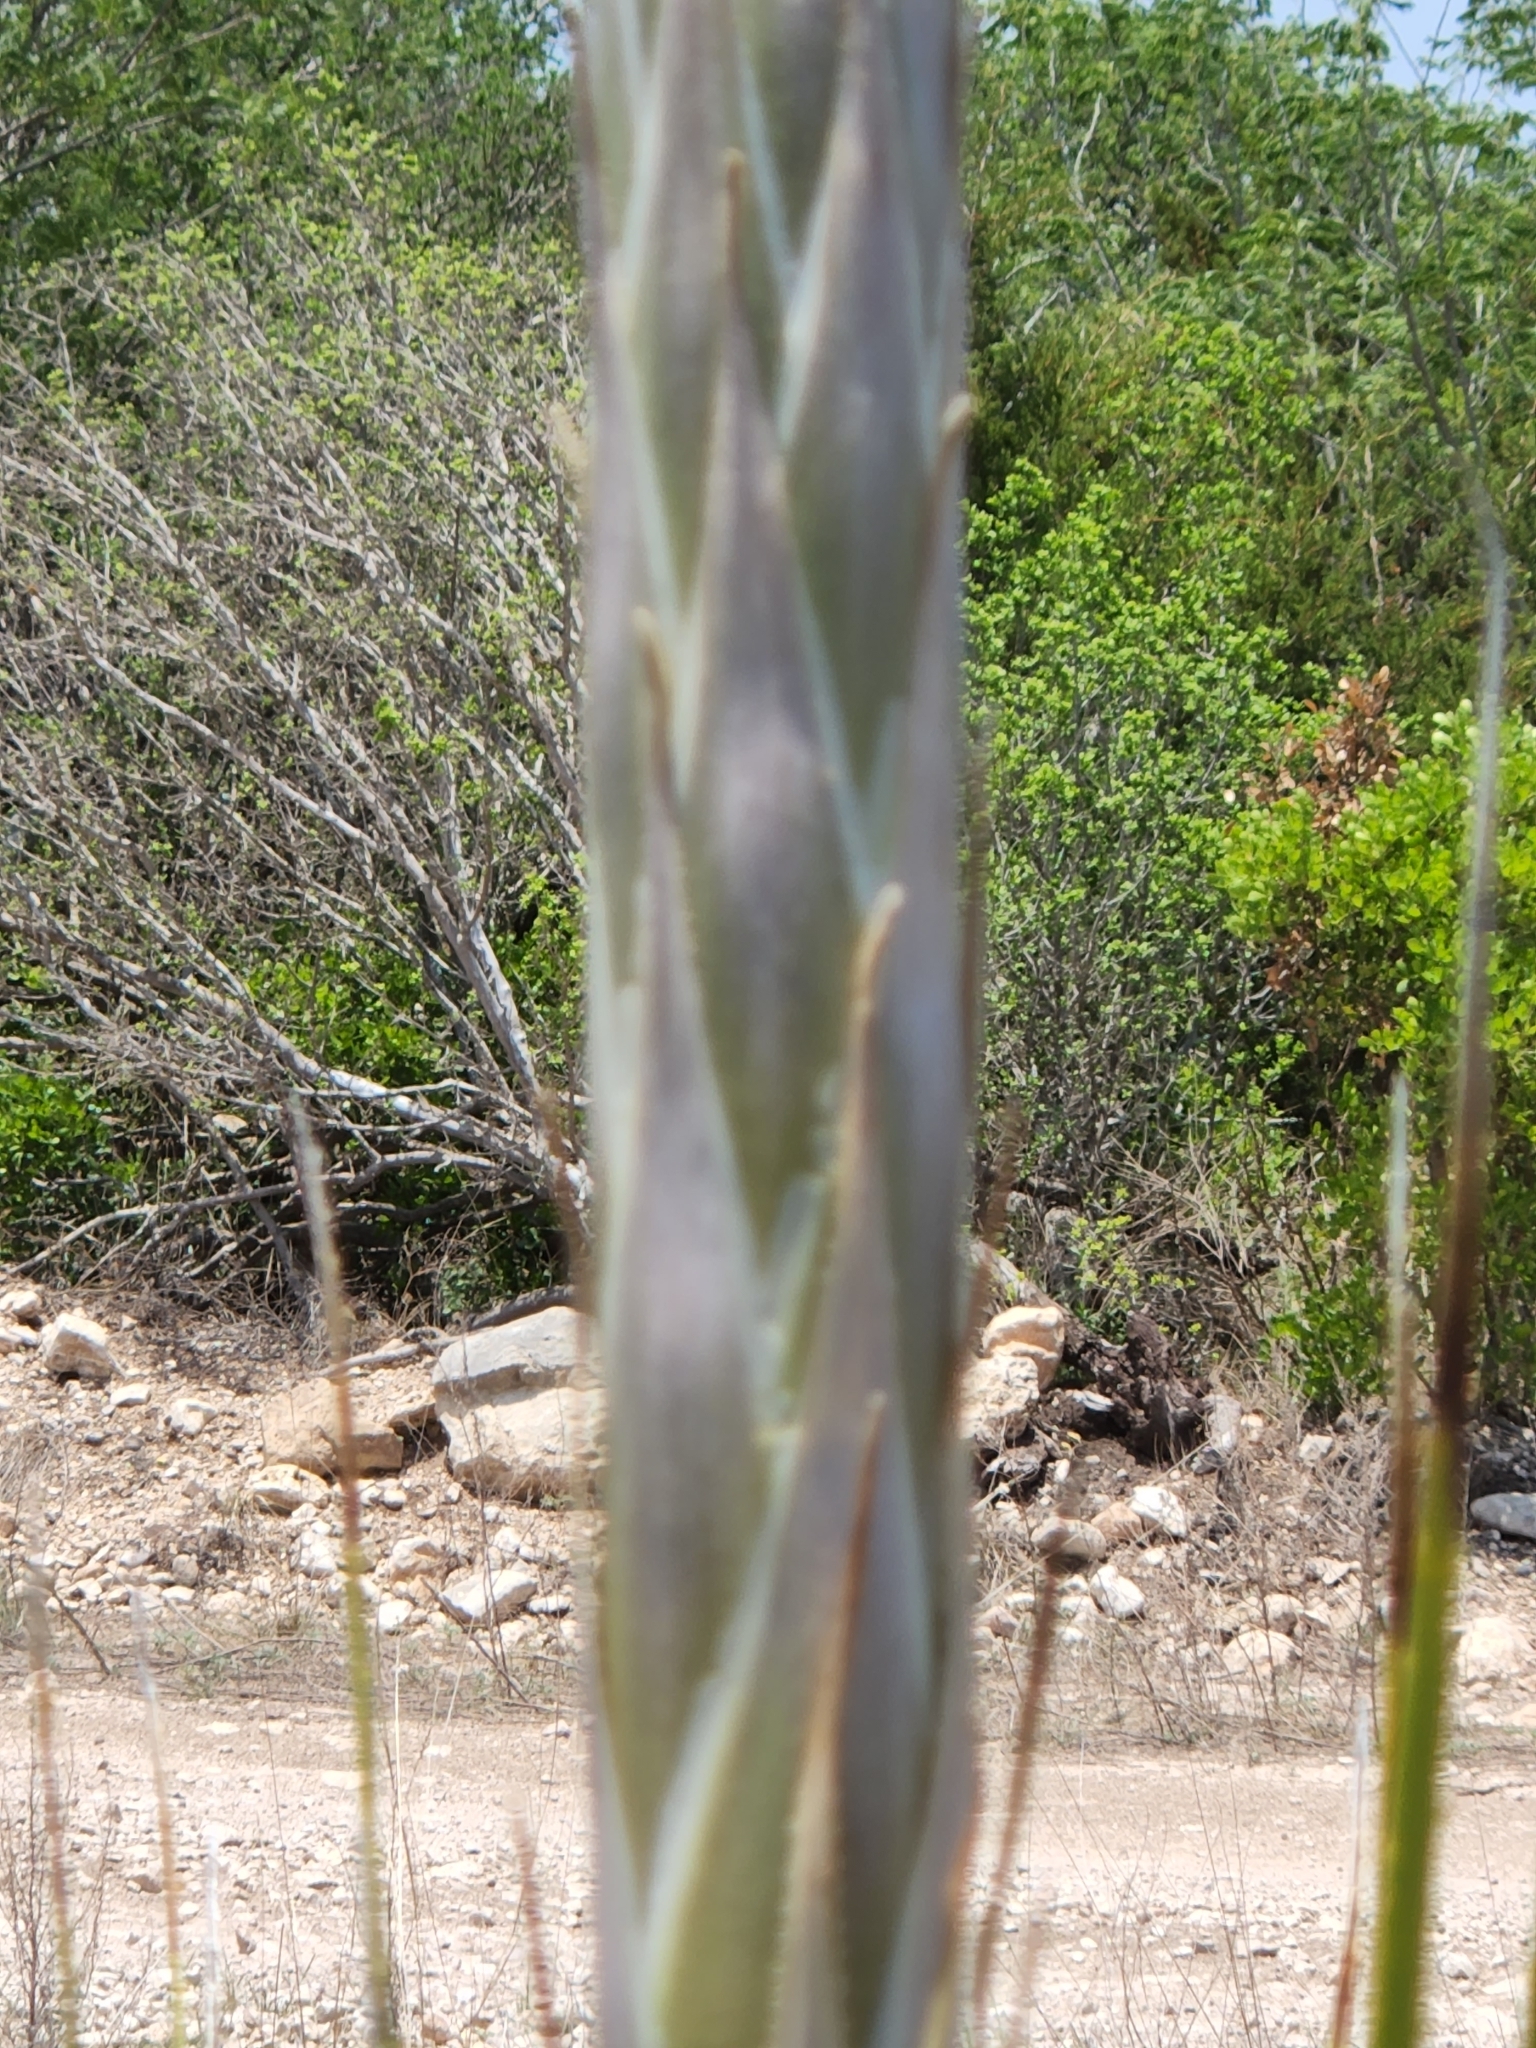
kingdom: Plantae
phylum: Tracheophyta
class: Liliopsida
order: Asparagales
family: Asparagaceae
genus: Dasylirion
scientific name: Dasylirion texanum
